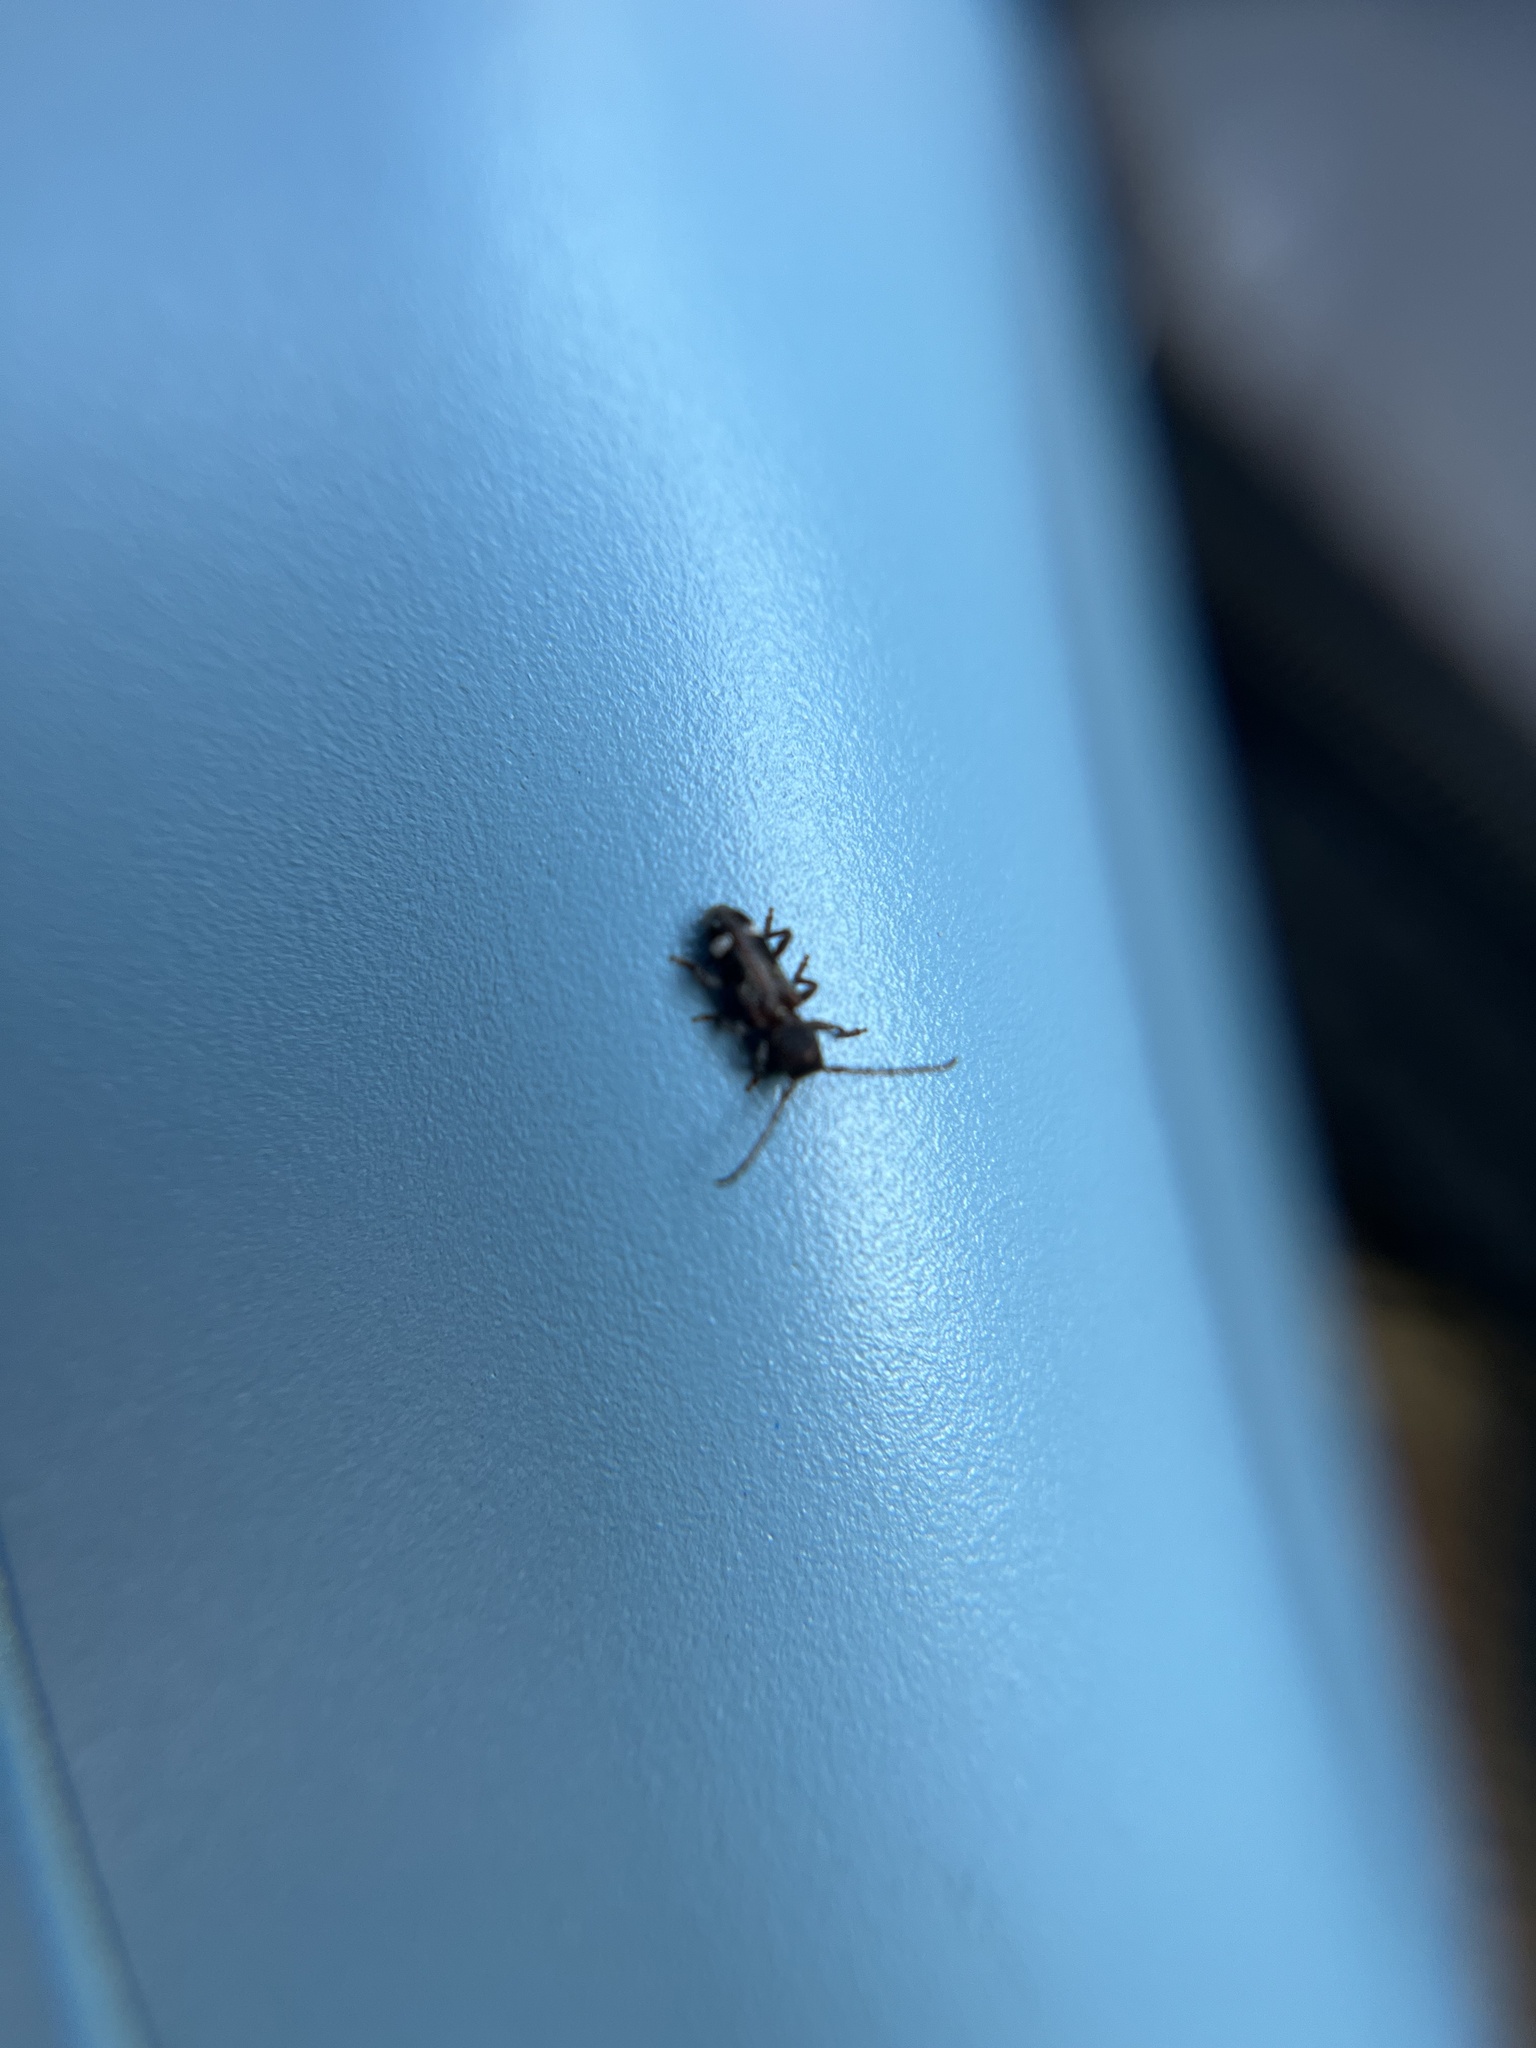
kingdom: Animalia
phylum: Arthropoda
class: Insecta
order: Coleoptera
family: Cerambycidae
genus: Psenocerus
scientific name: Psenocerus supernotatus
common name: Currant-tip borer
